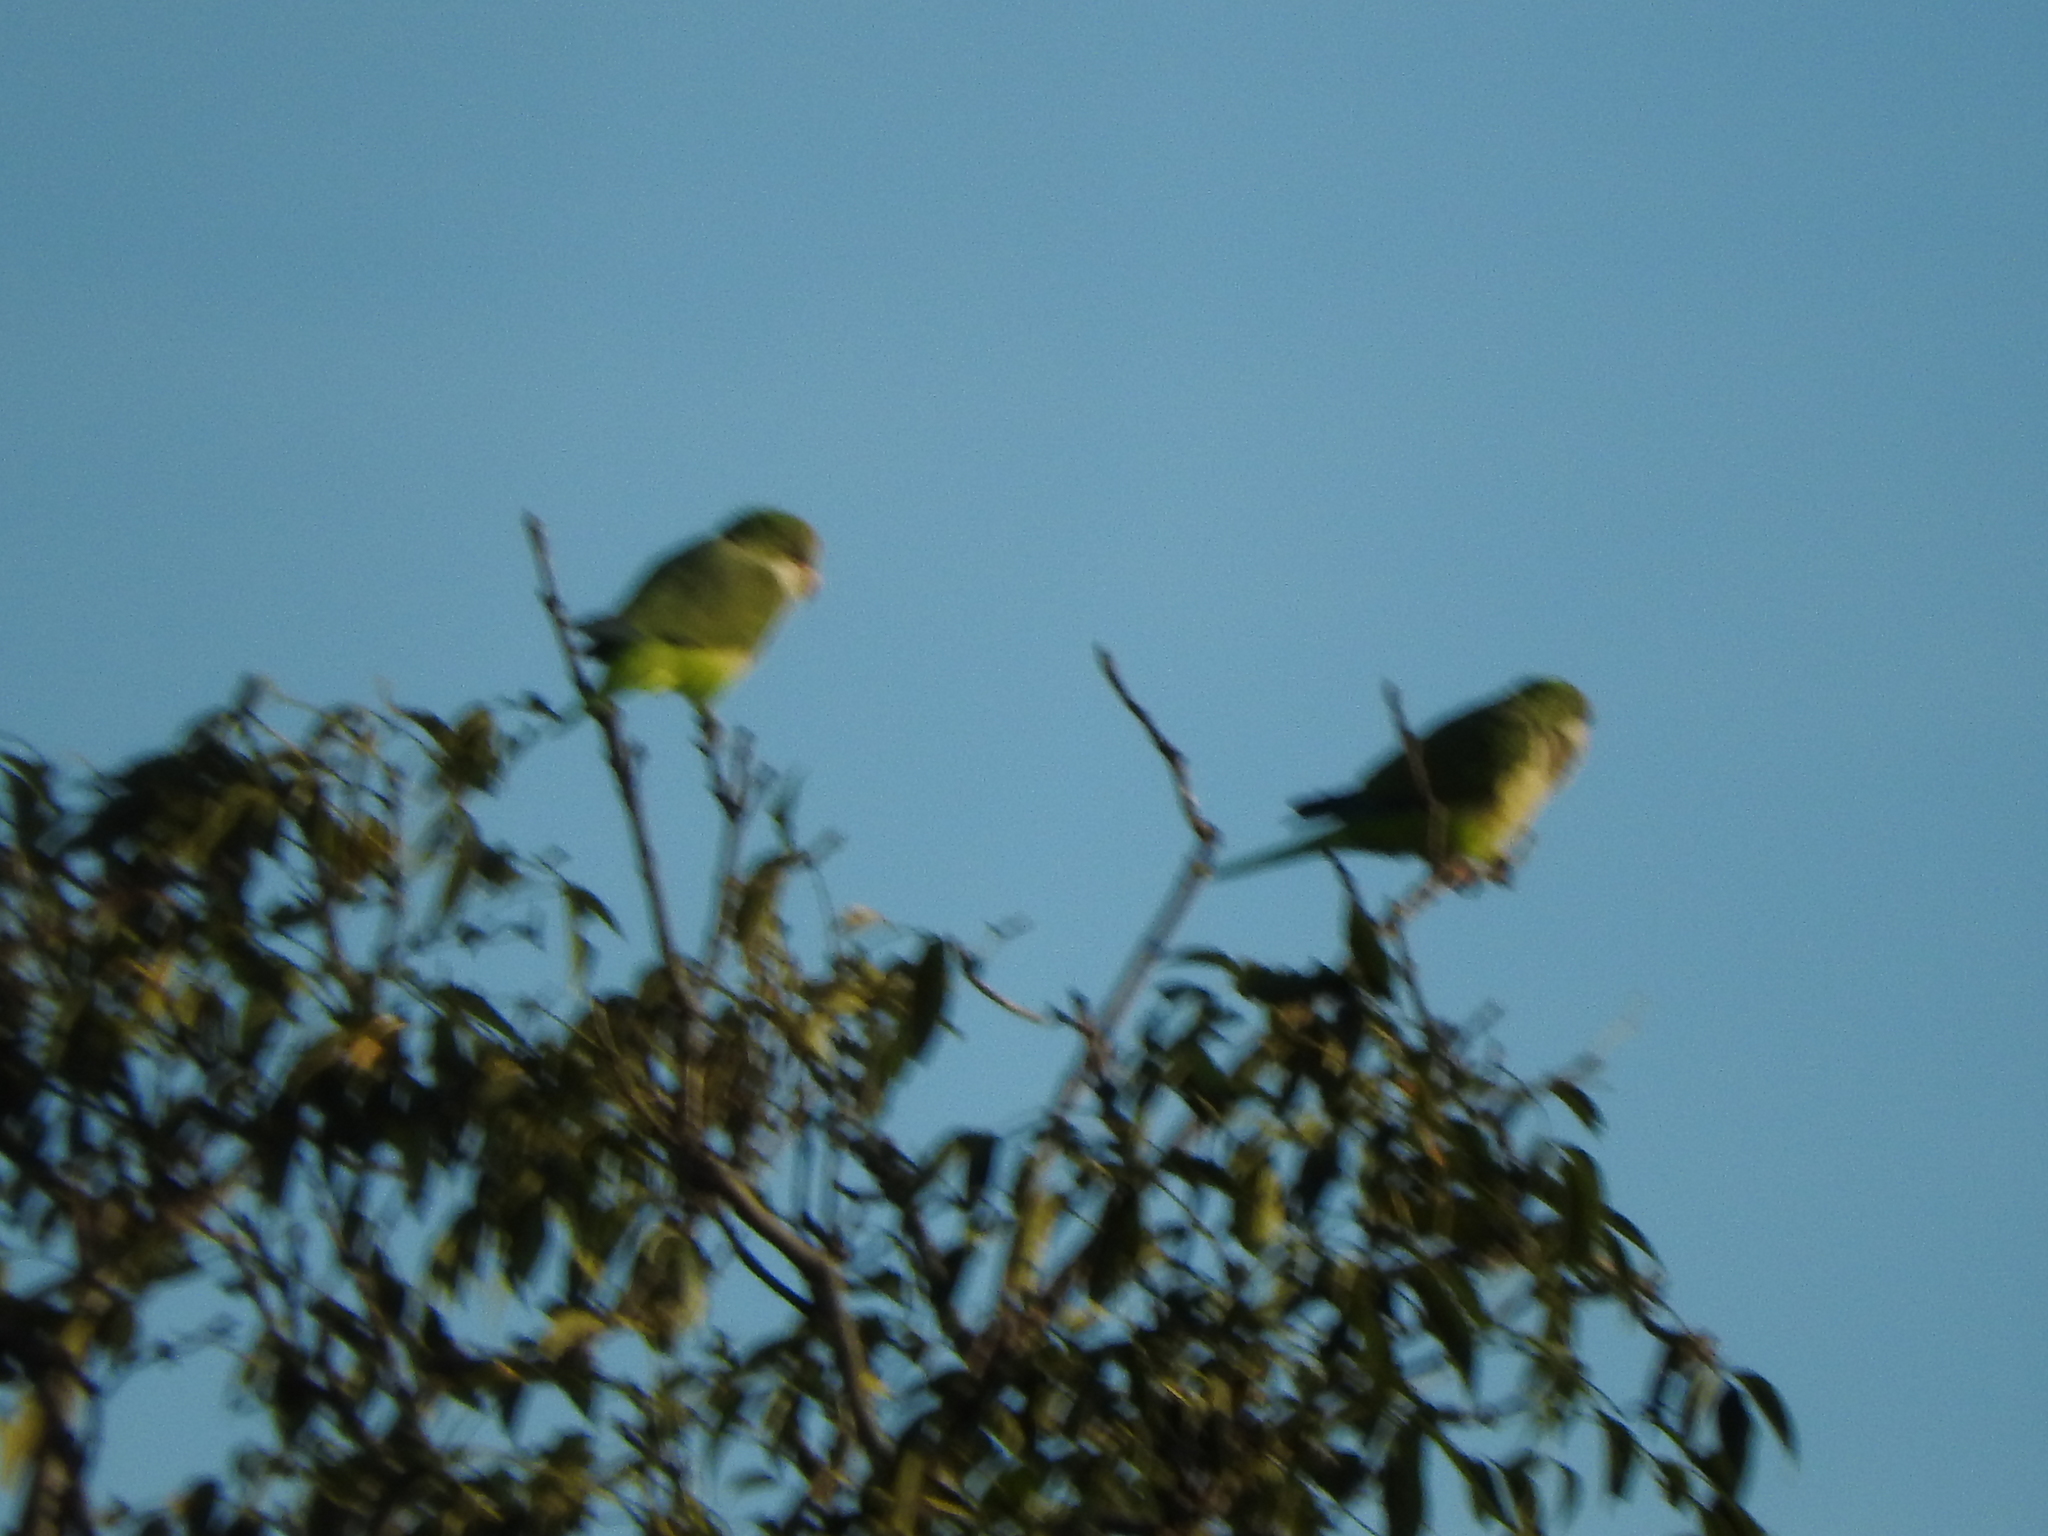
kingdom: Animalia
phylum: Chordata
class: Aves
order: Psittaciformes
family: Psittacidae
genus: Myiopsitta
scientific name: Myiopsitta monachus
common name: Monk parakeet
